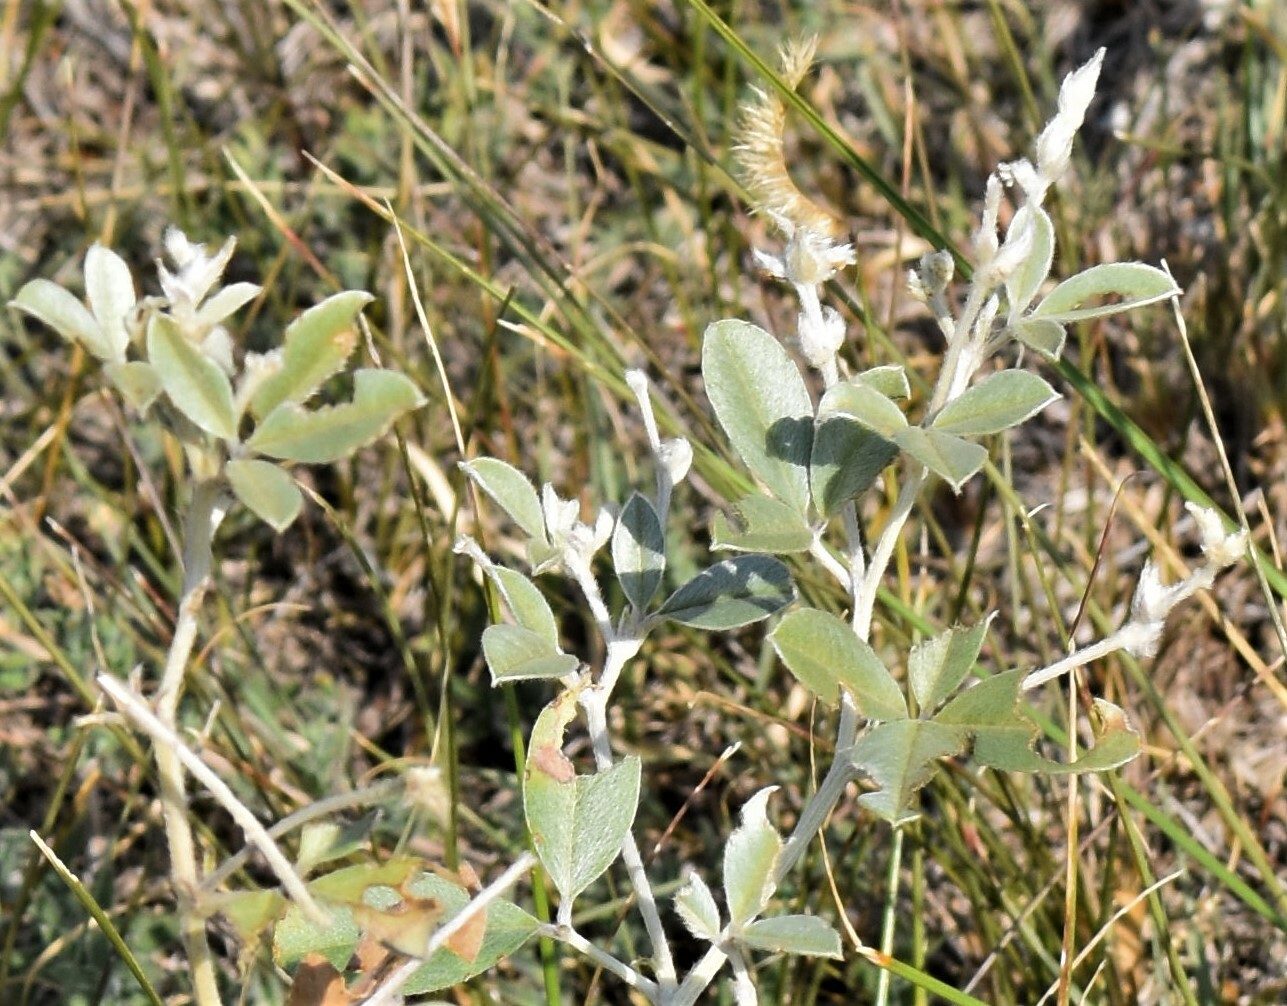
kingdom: Plantae
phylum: Tracheophyta
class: Magnoliopsida
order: Fabales
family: Fabaceae
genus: Pediomelum
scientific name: Pediomelum argophyllum
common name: Silver-leaved indian breadroot
